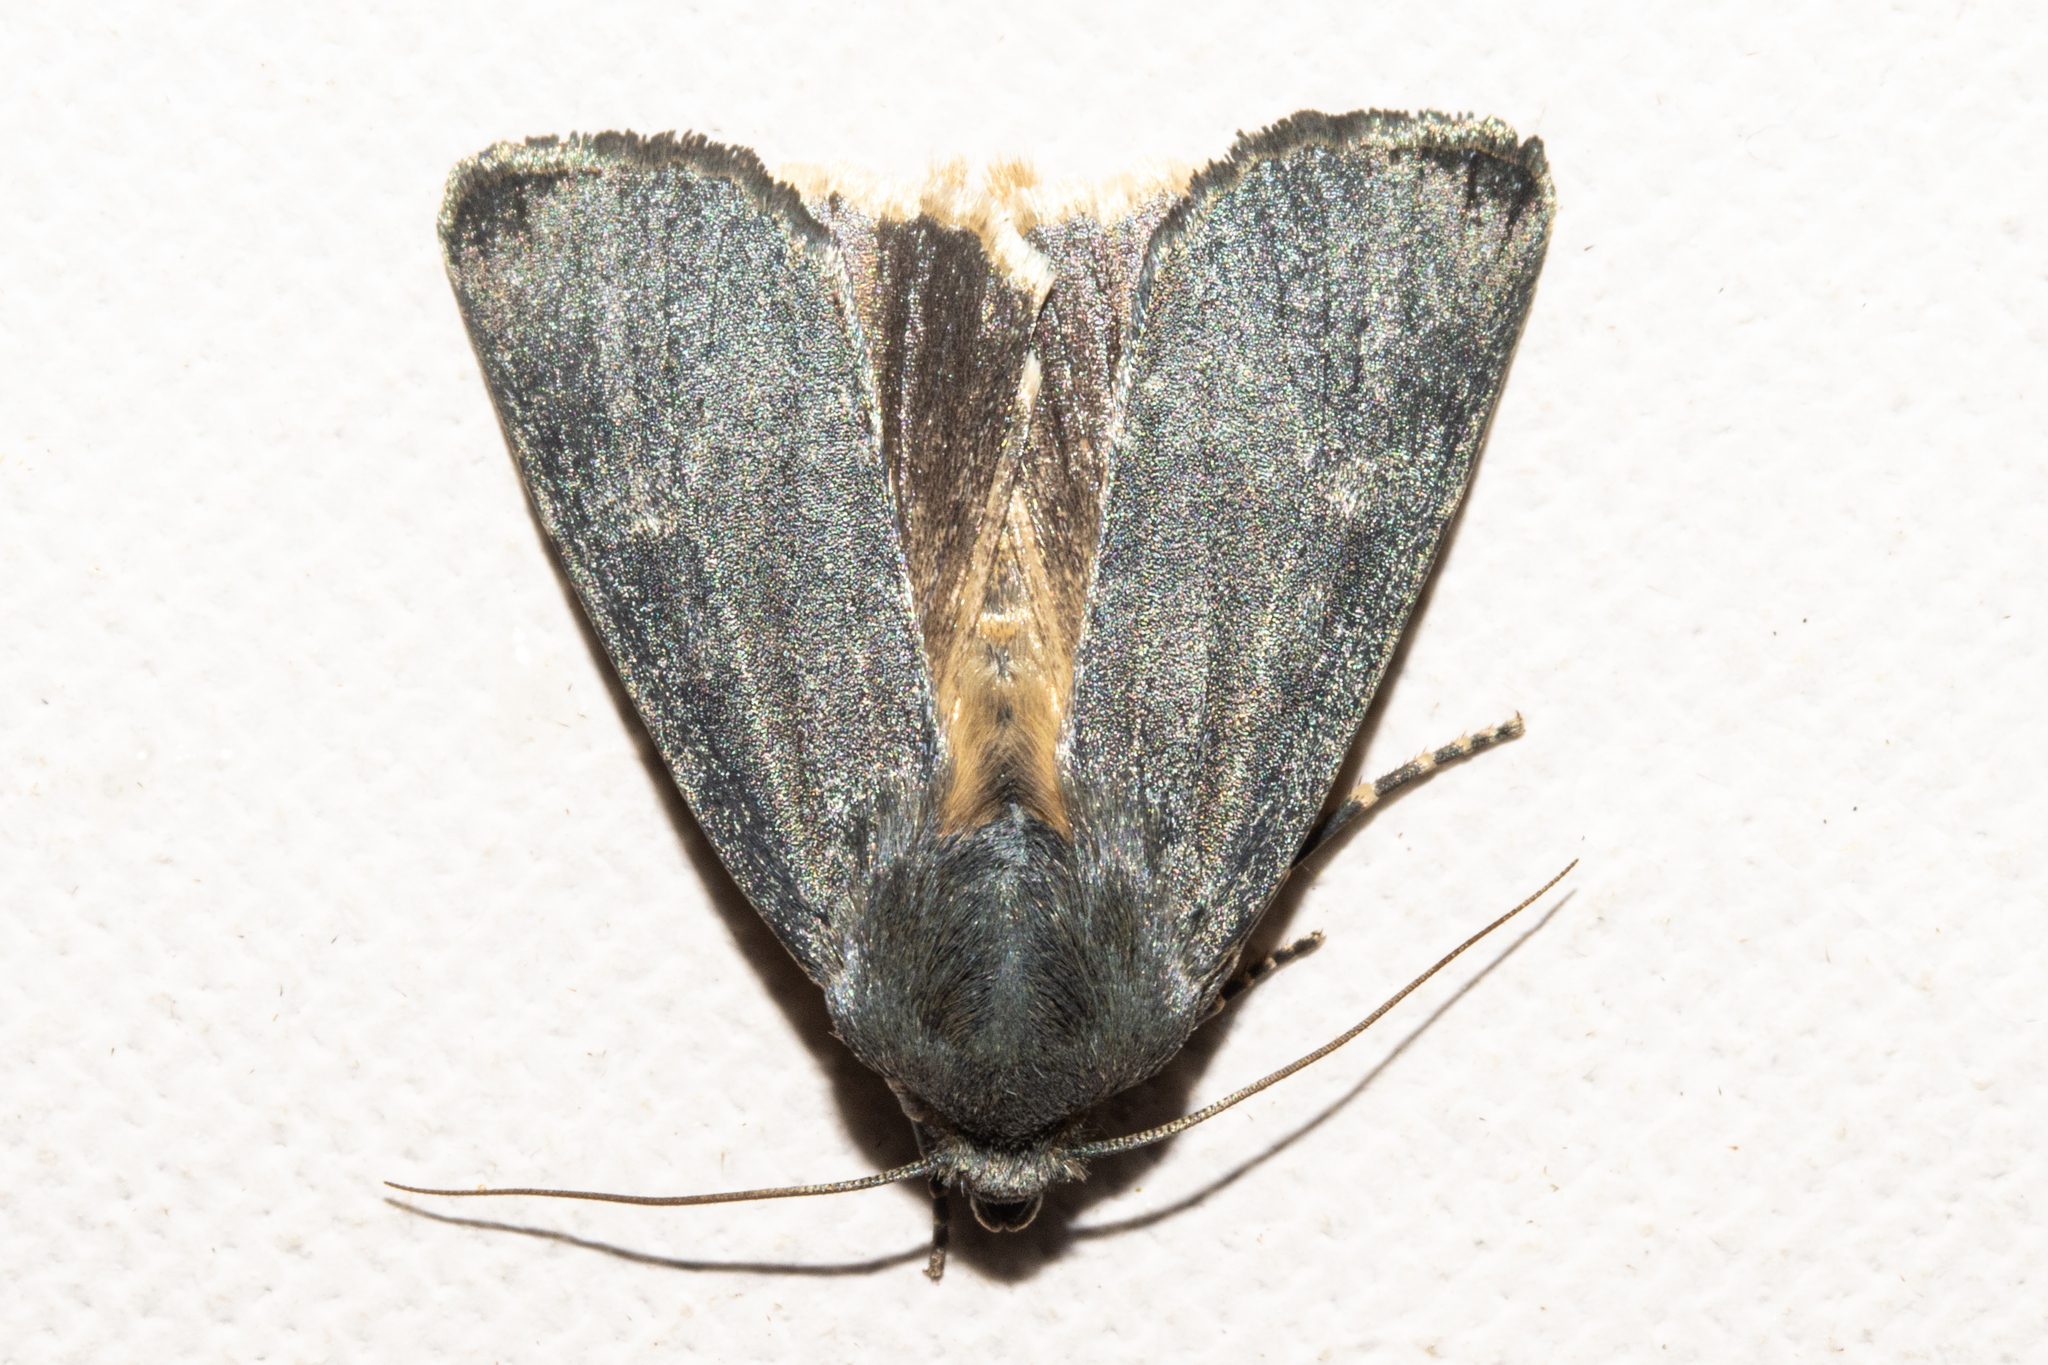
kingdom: Animalia
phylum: Arthropoda
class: Insecta
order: Lepidoptera
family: Noctuidae
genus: Physetica
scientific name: Physetica caerulea
